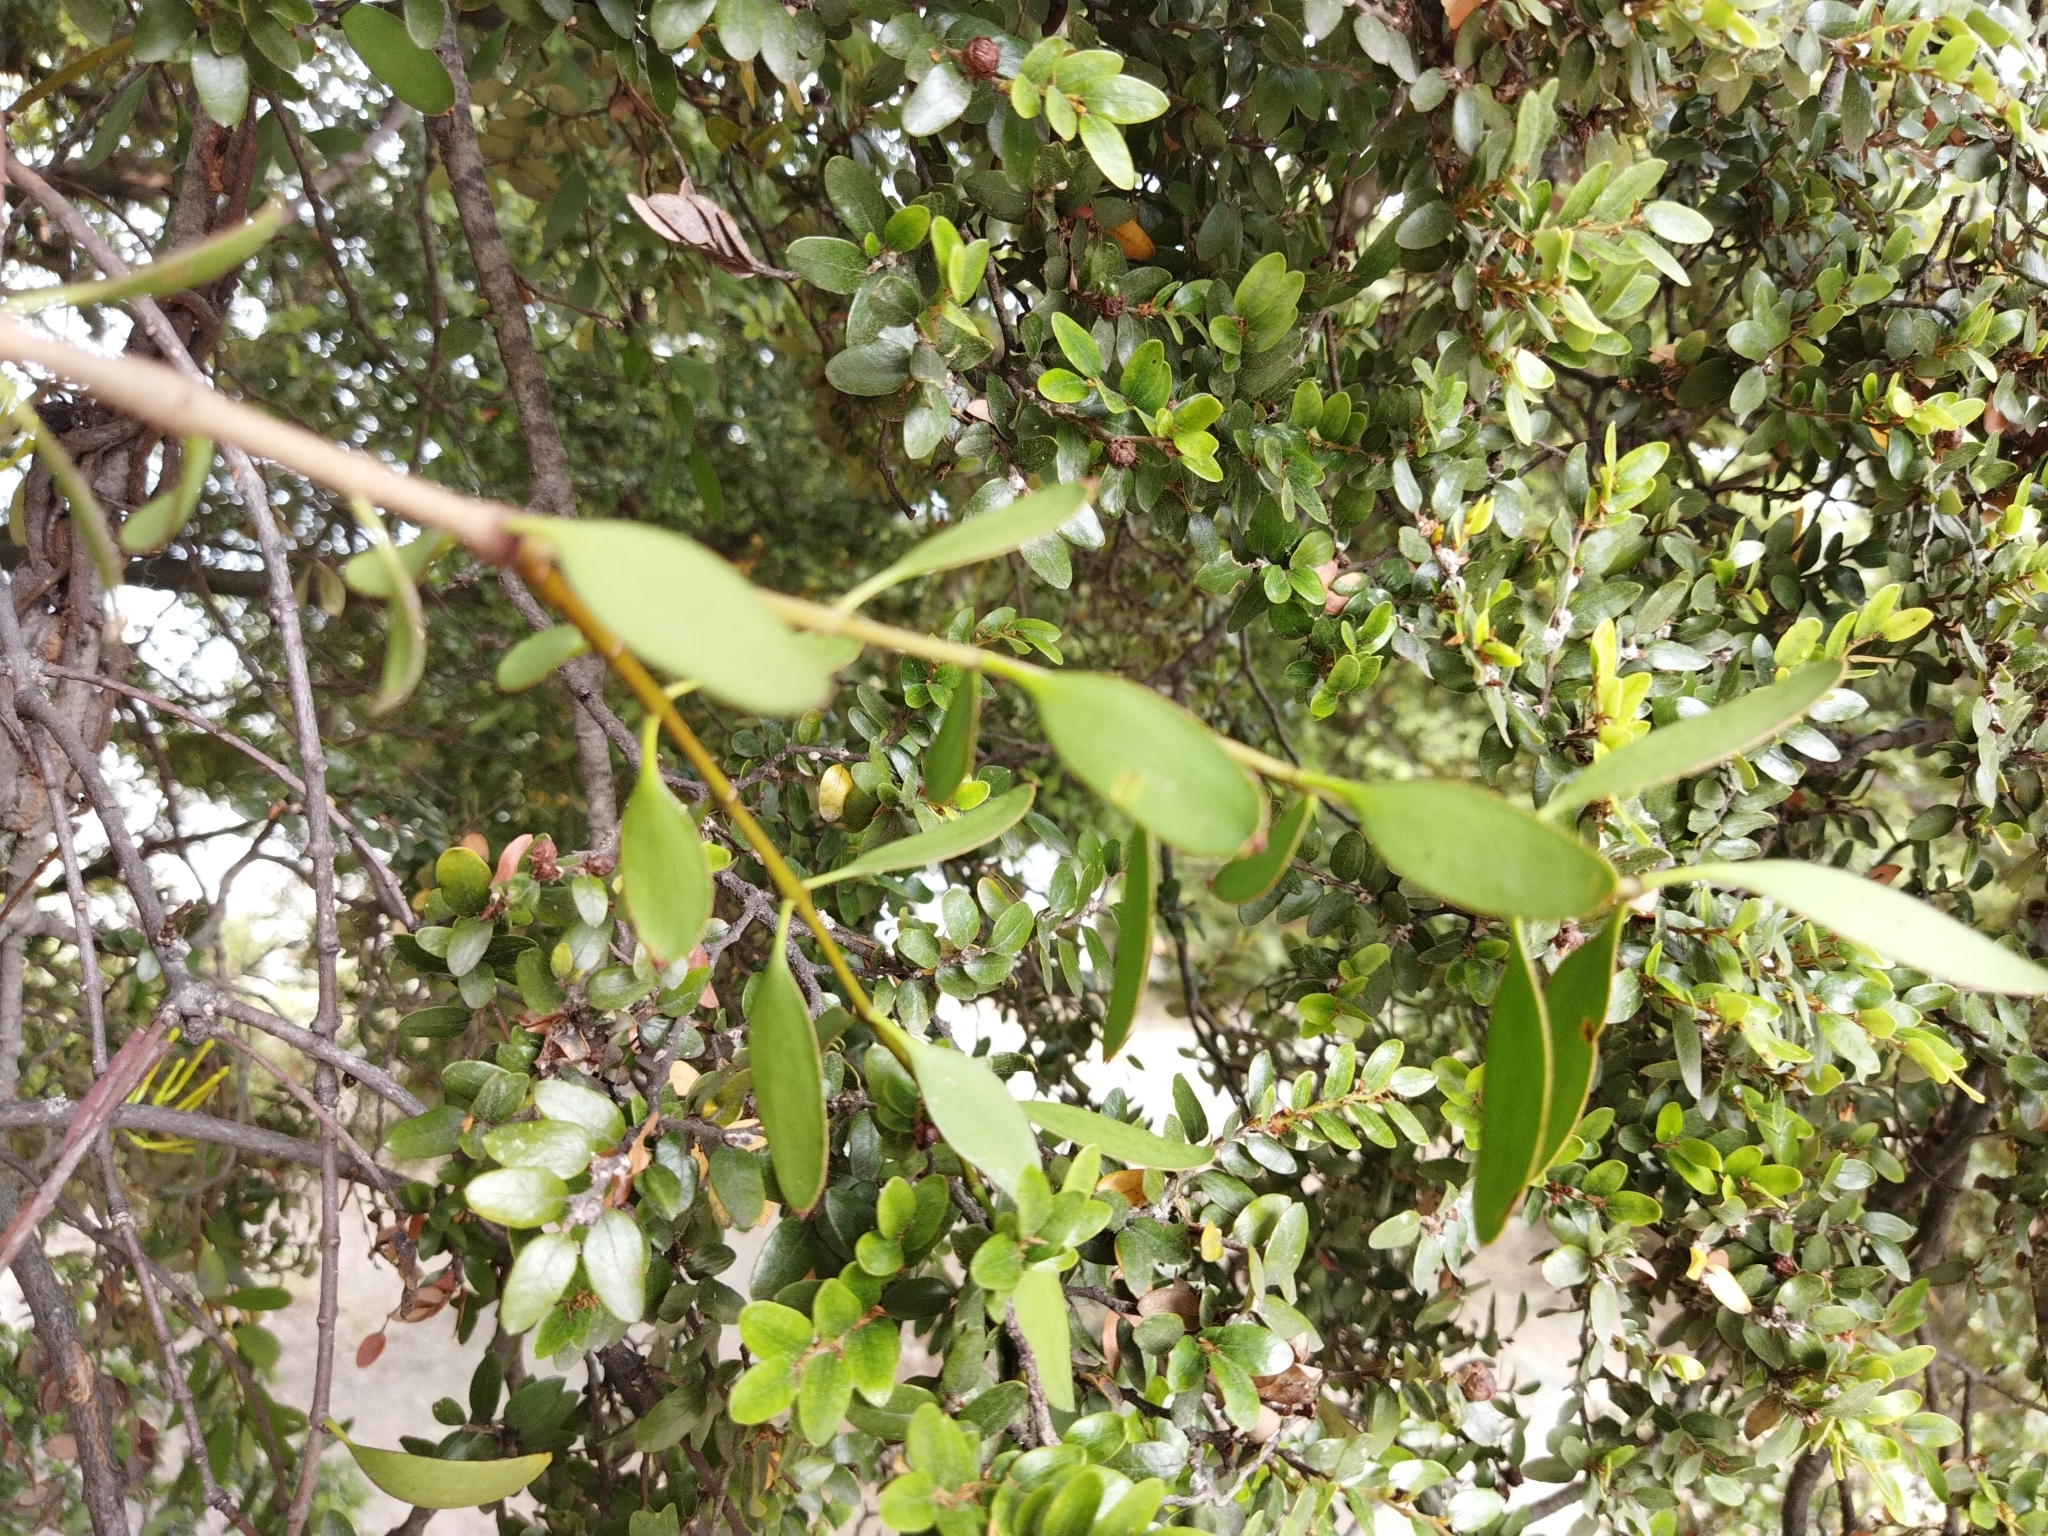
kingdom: Plantae
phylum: Tracheophyta
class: Magnoliopsida
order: Santalales
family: Loranthaceae
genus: Alepis
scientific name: Alepis flavida
